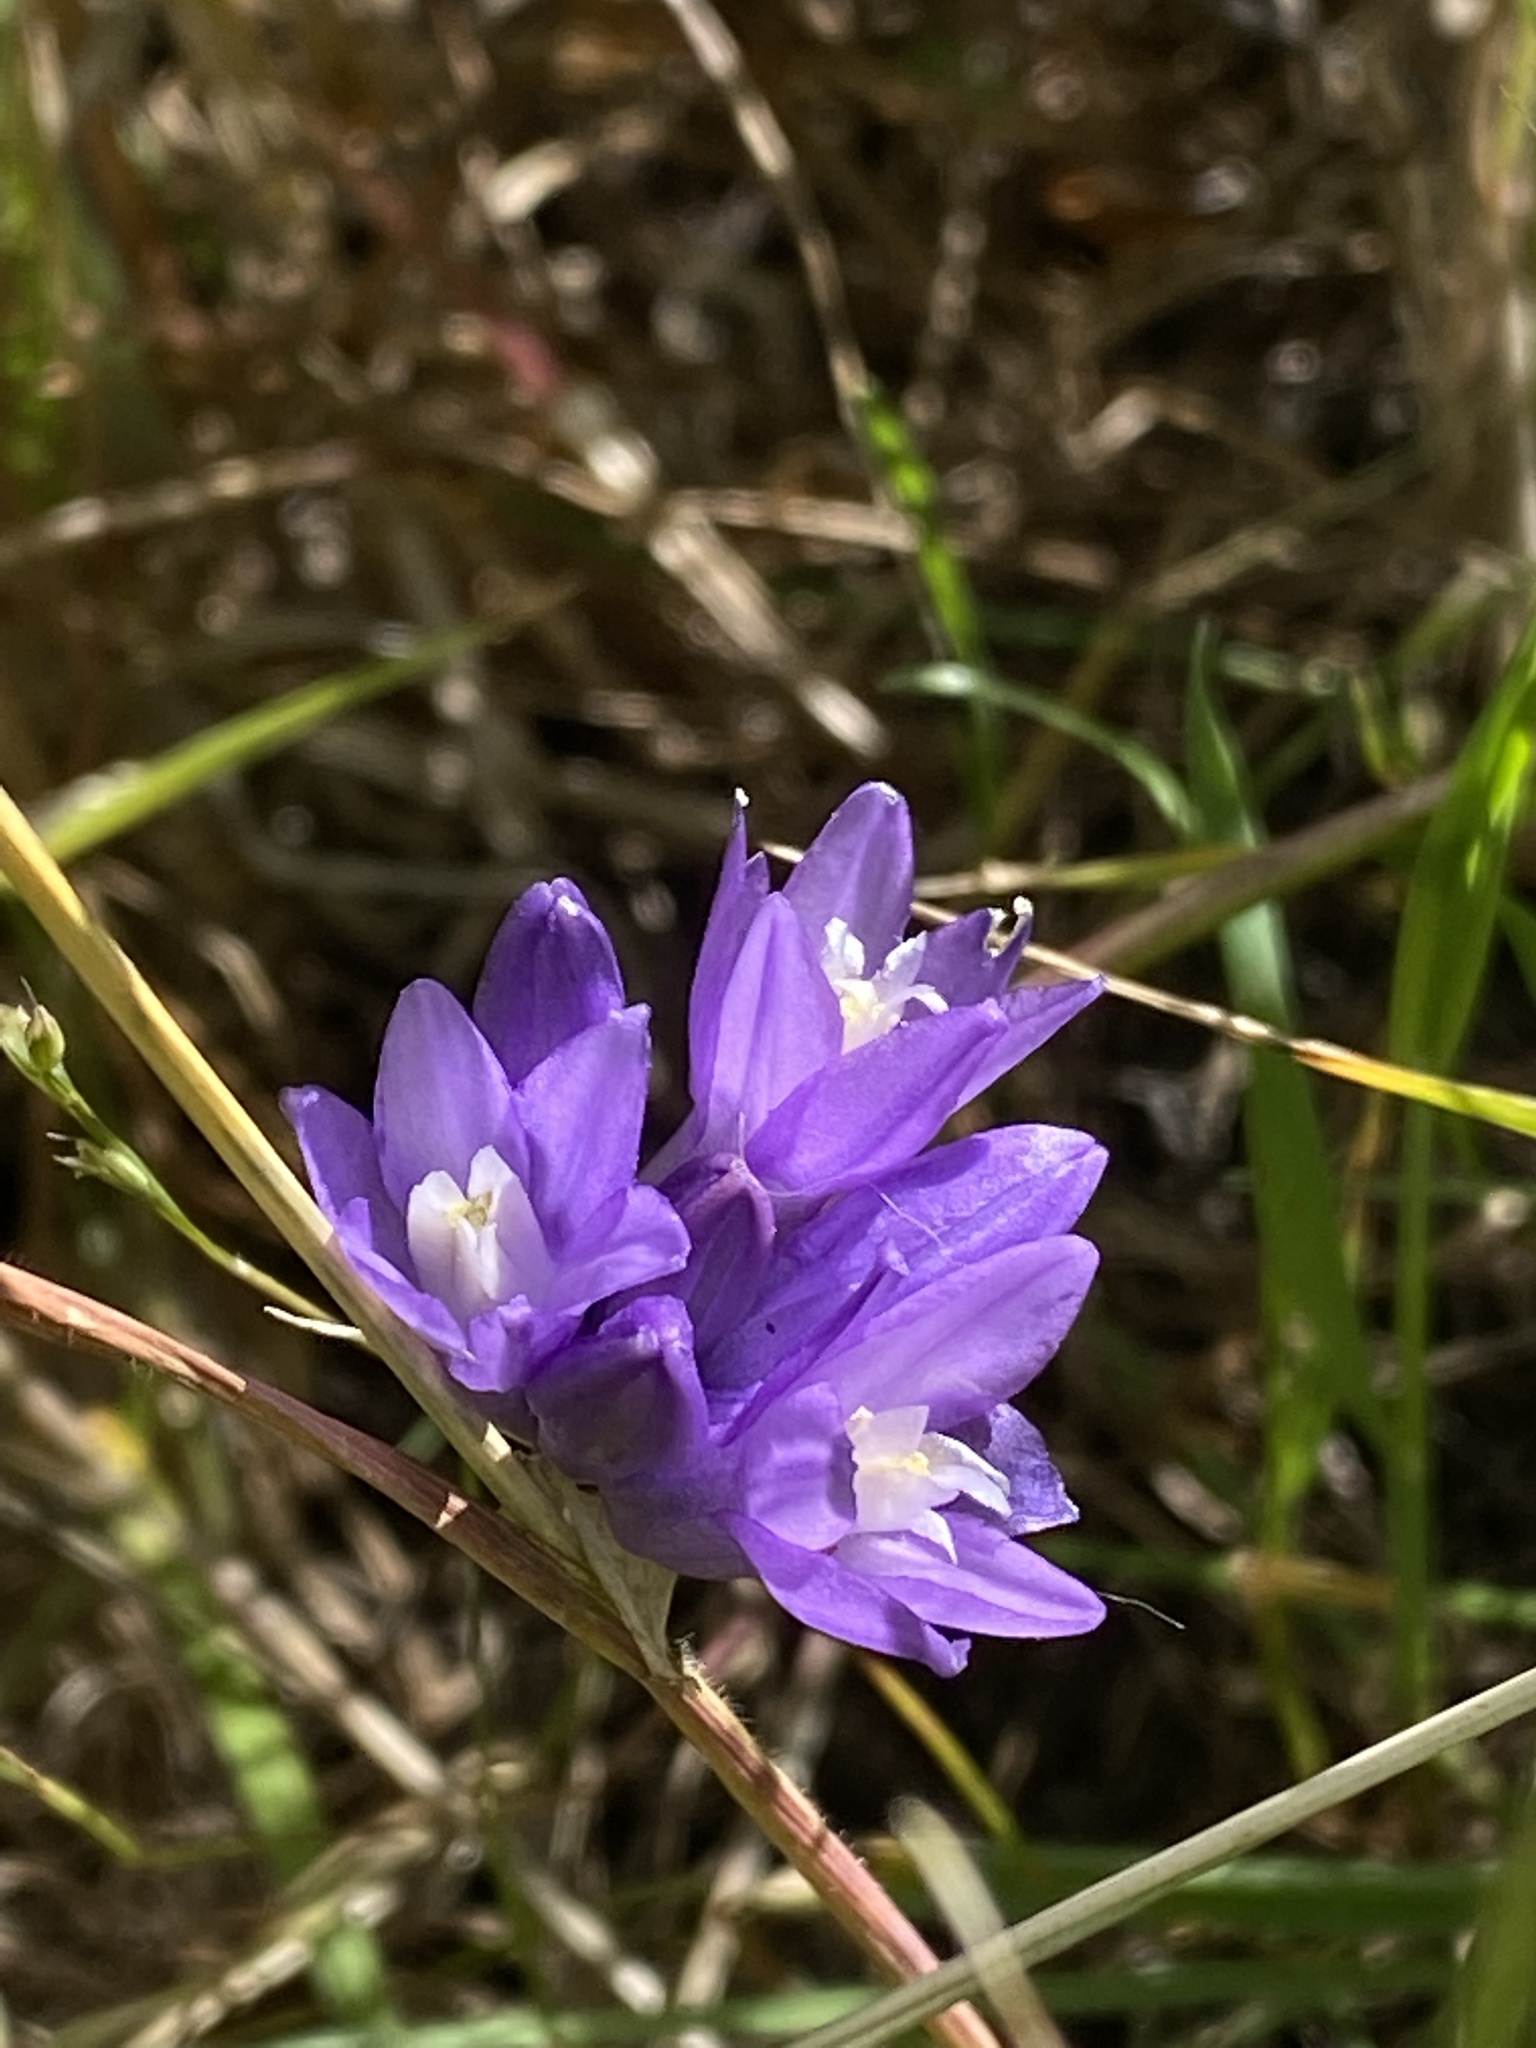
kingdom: Plantae
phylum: Tracheophyta
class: Liliopsida
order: Asparagales
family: Asparagaceae
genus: Dipterostemon
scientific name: Dipterostemon capitatus
